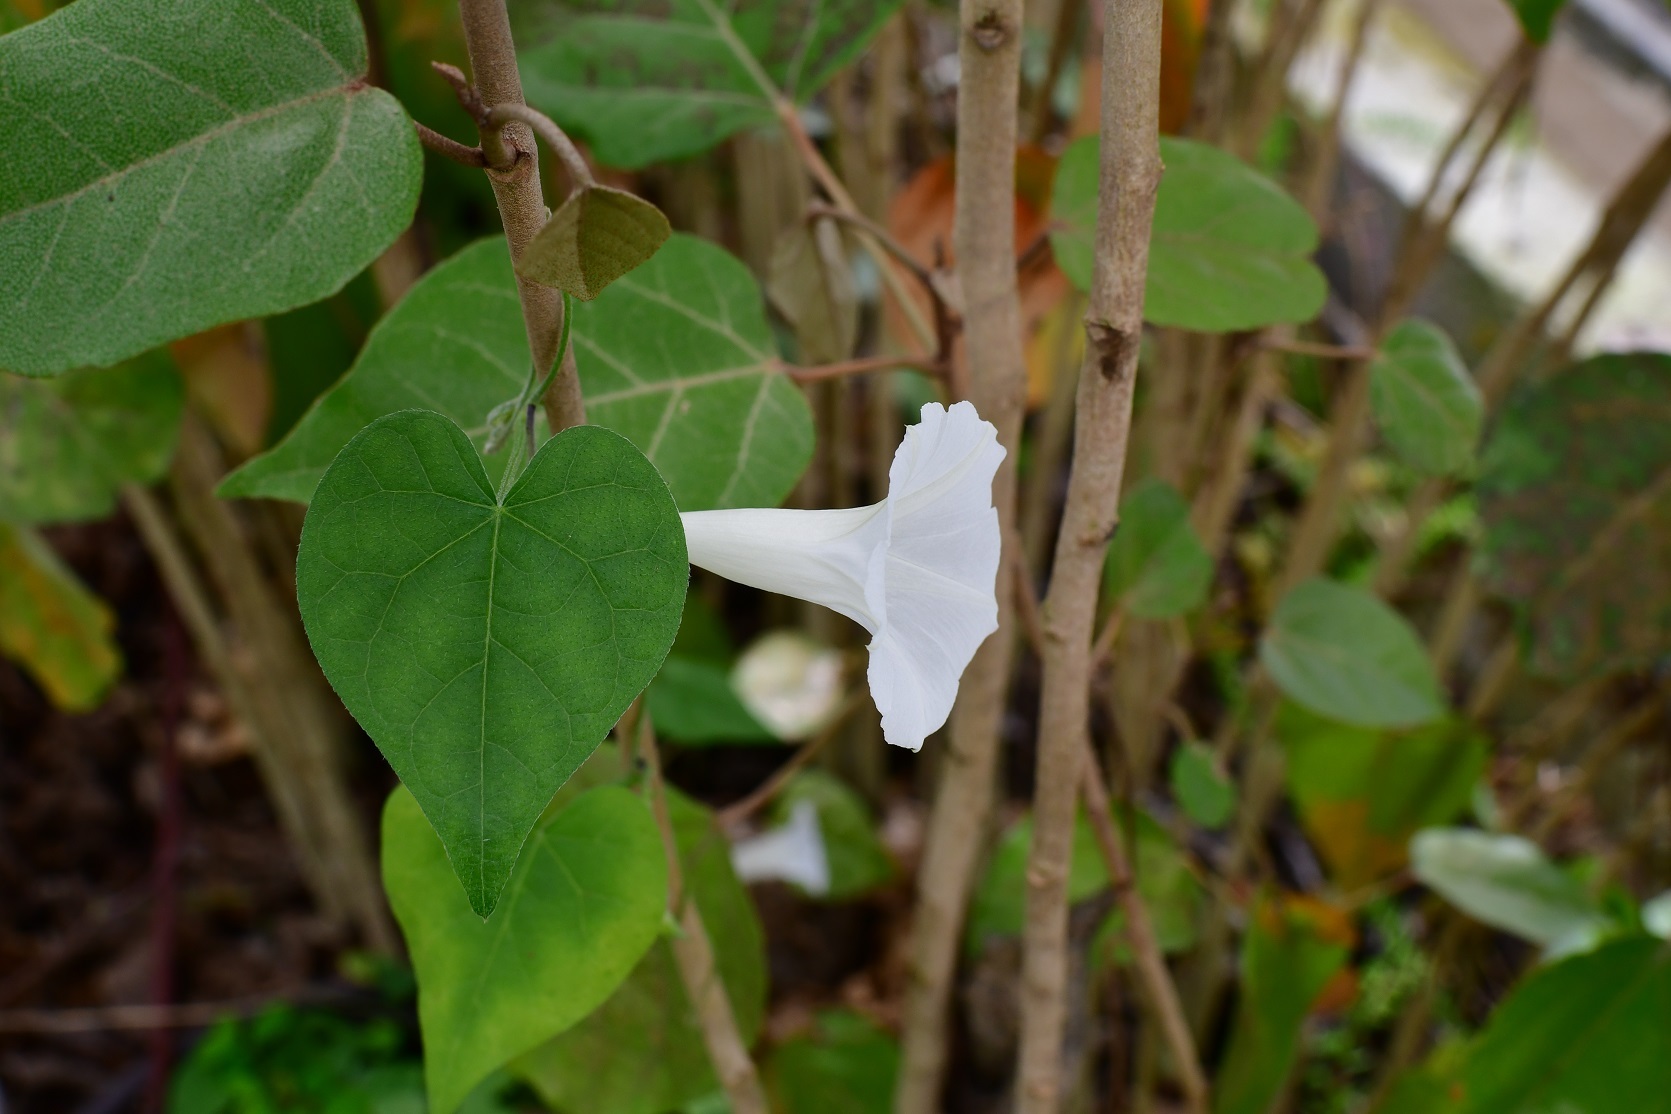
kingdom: Plantae
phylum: Tracheophyta
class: Magnoliopsida
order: Solanales
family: Convolvulaceae
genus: Ipomoea
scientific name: Ipomoea purpurea
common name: Common morning-glory
